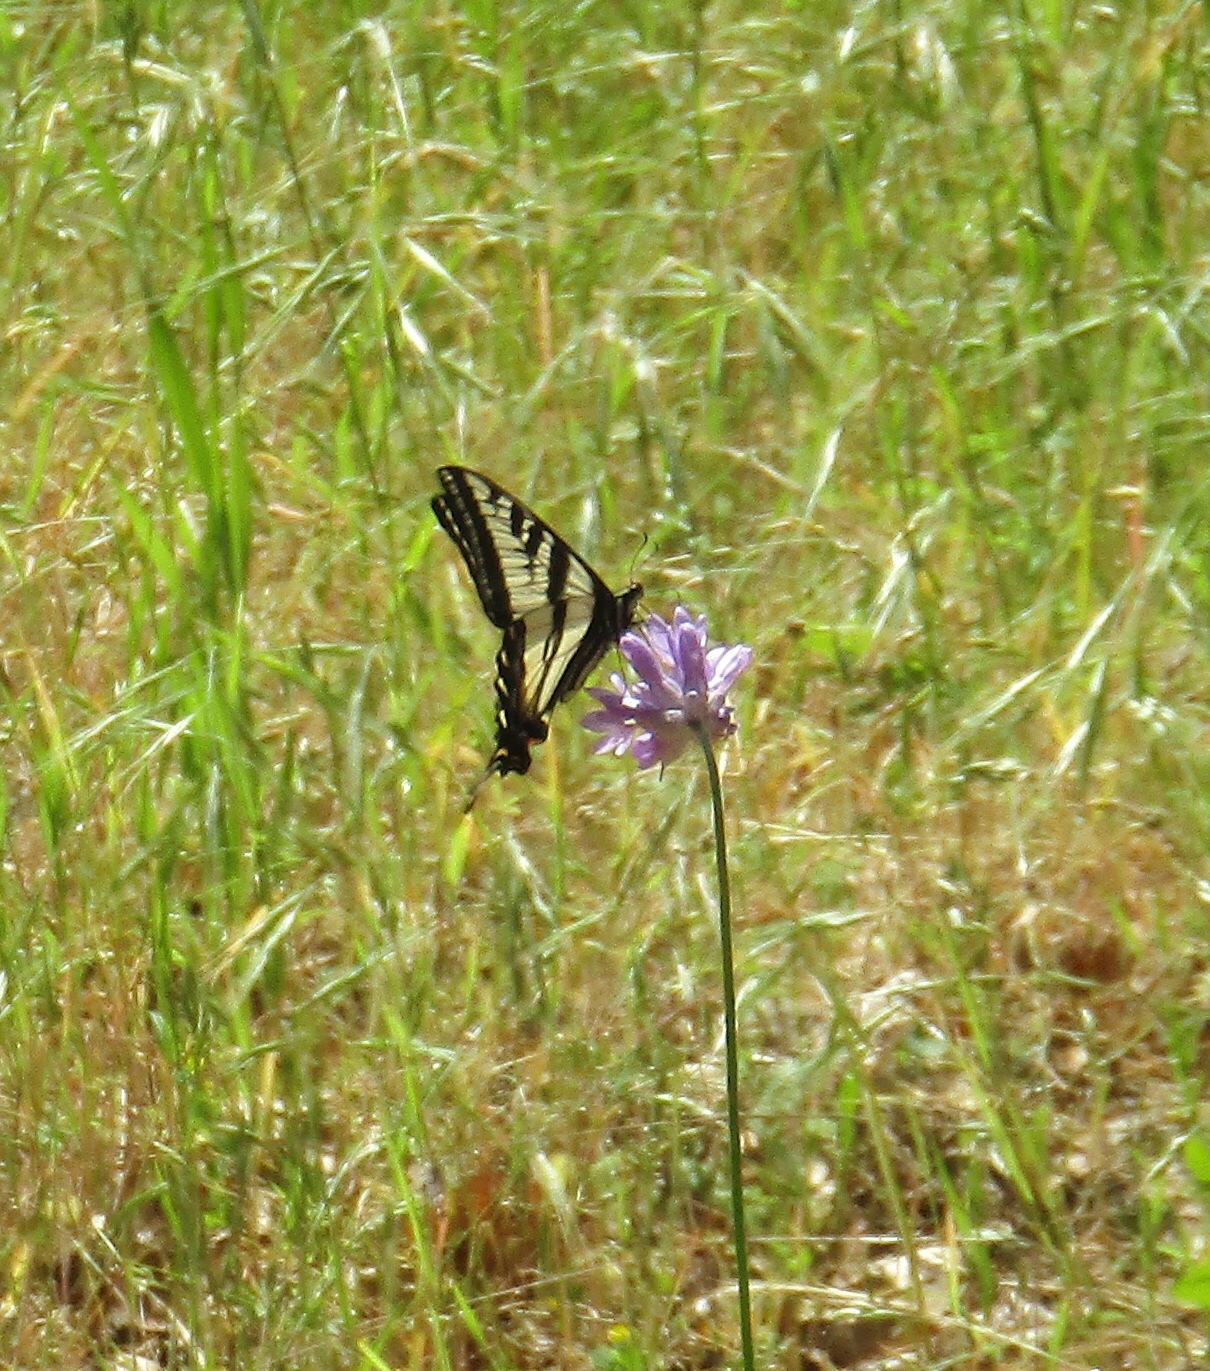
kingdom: Animalia
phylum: Arthropoda
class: Insecta
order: Lepidoptera
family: Papilionidae
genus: Papilio
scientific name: Papilio rutulus
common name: Western tiger swallowtail
